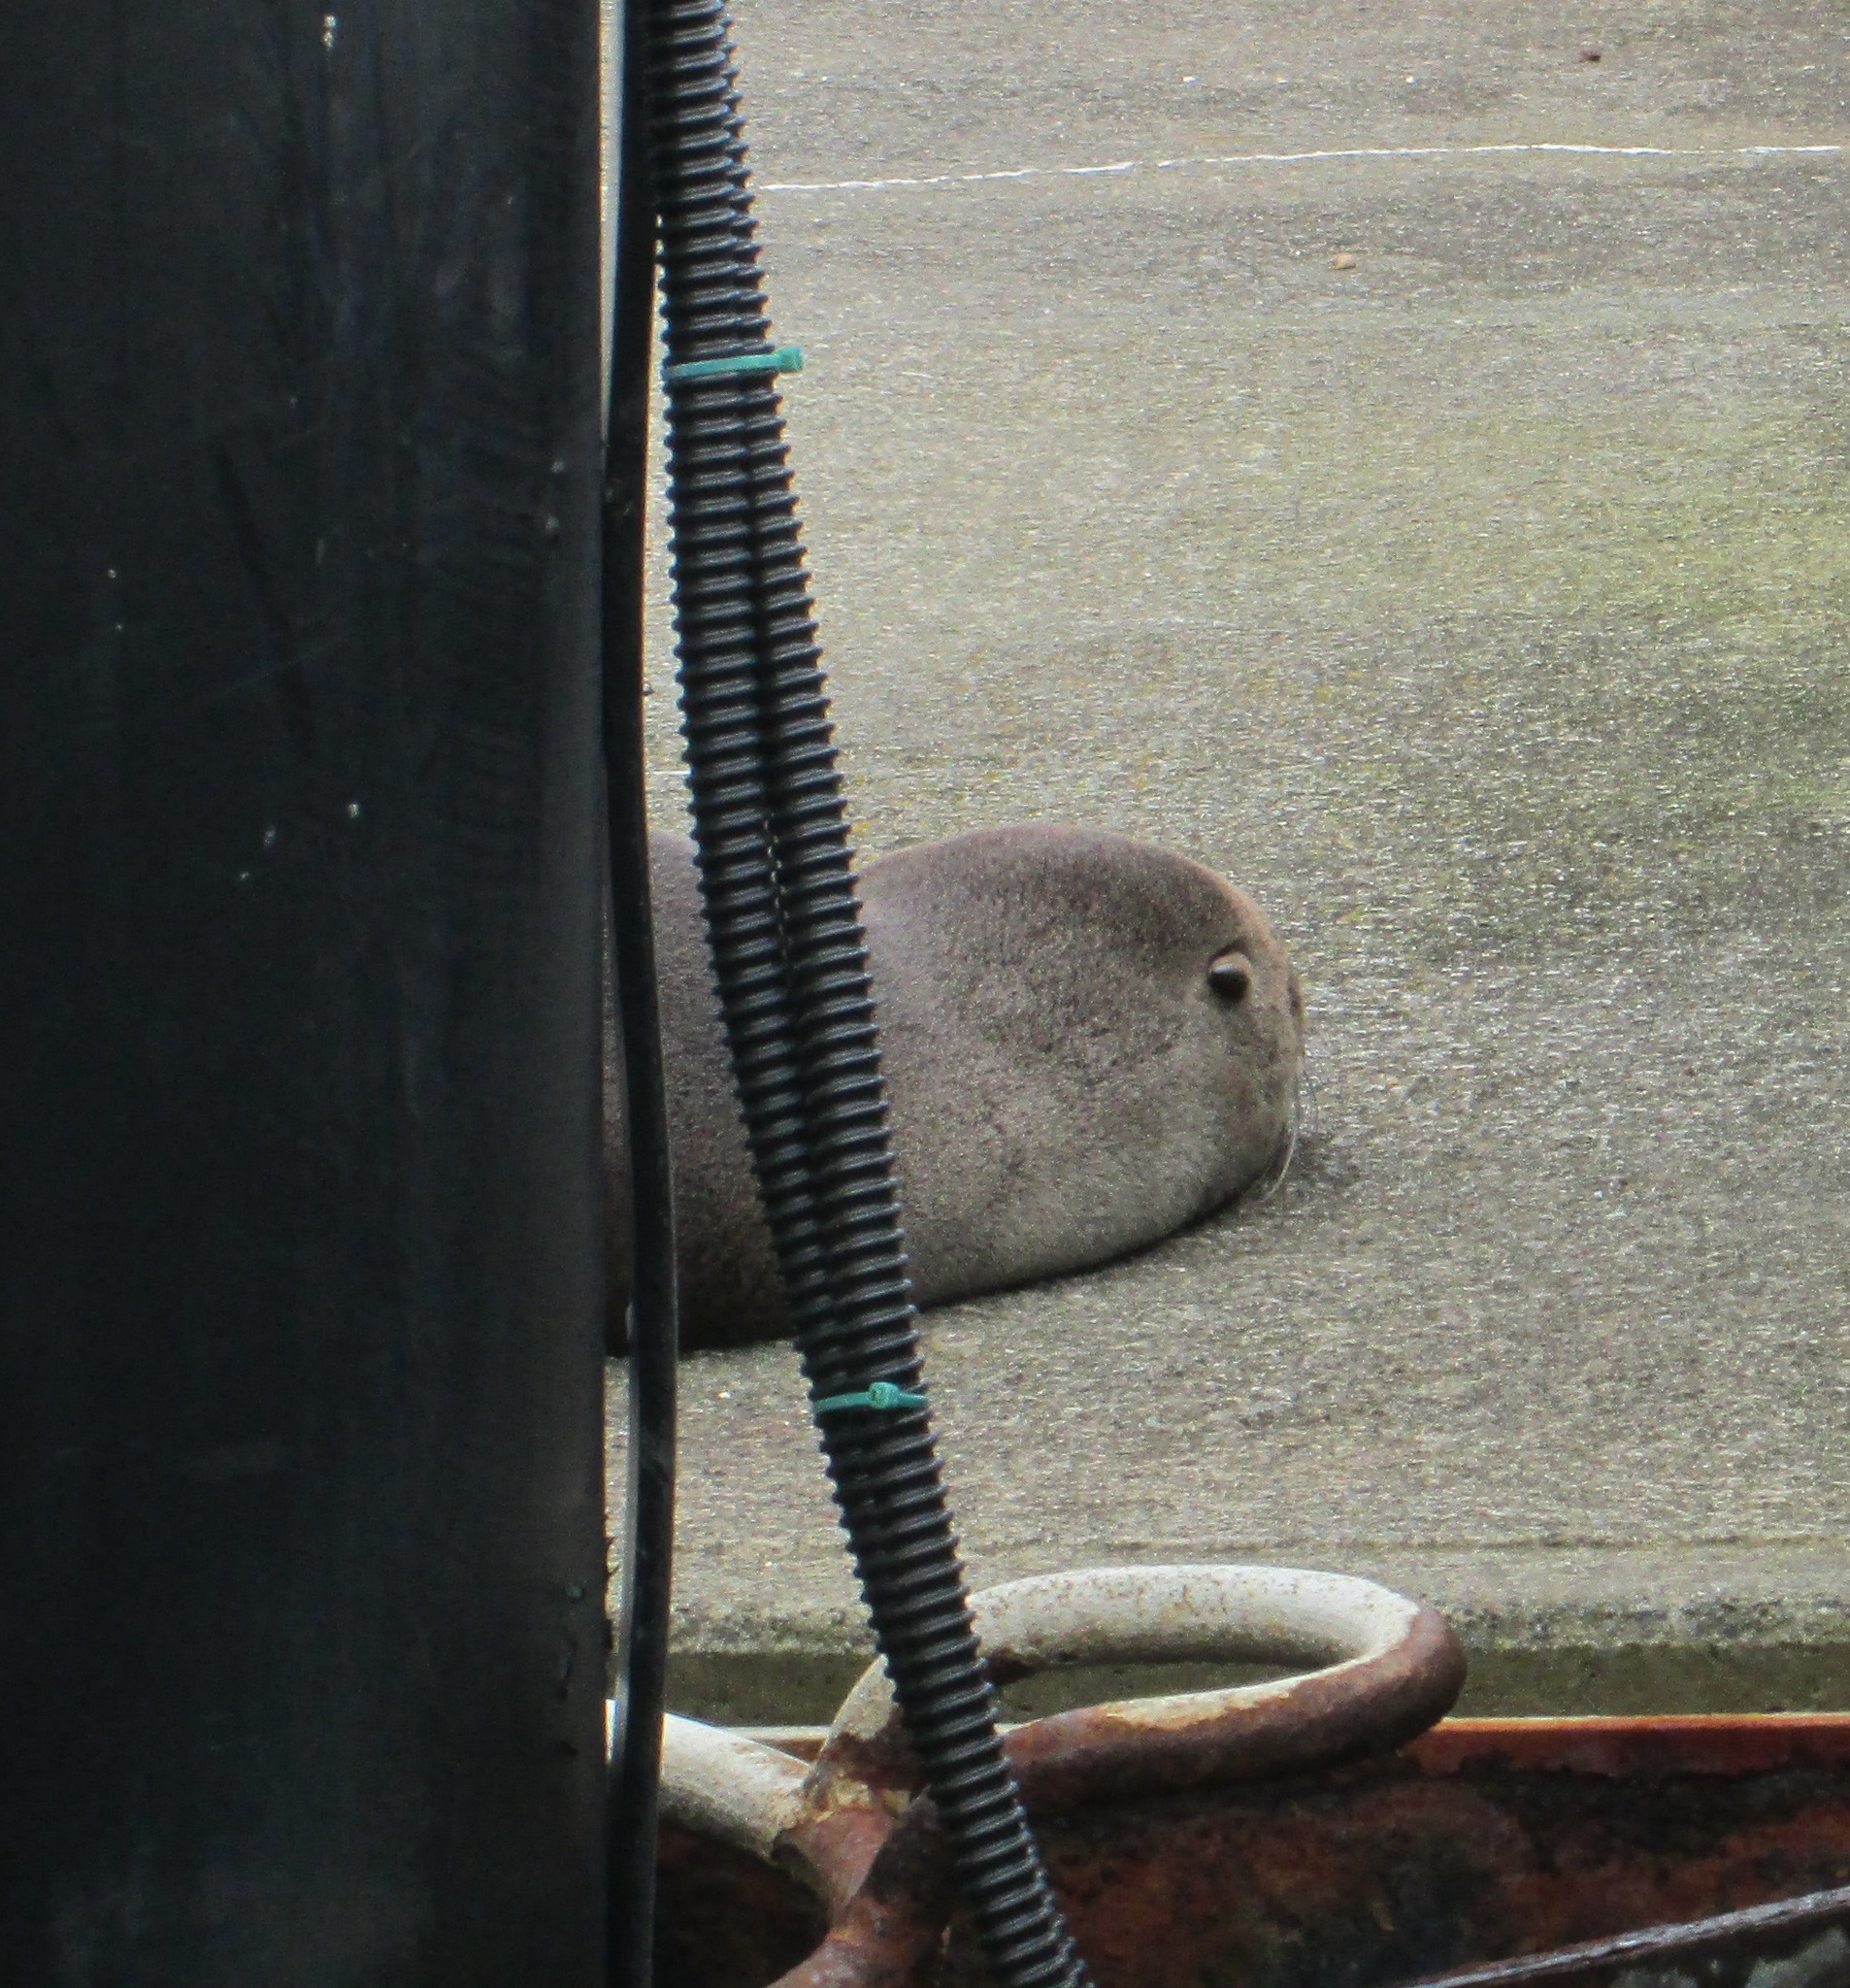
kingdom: Animalia
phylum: Chordata
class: Mammalia
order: Carnivora
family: Otariidae
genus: Arctocephalus
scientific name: Arctocephalus forsteri
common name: New zealand fur seal
